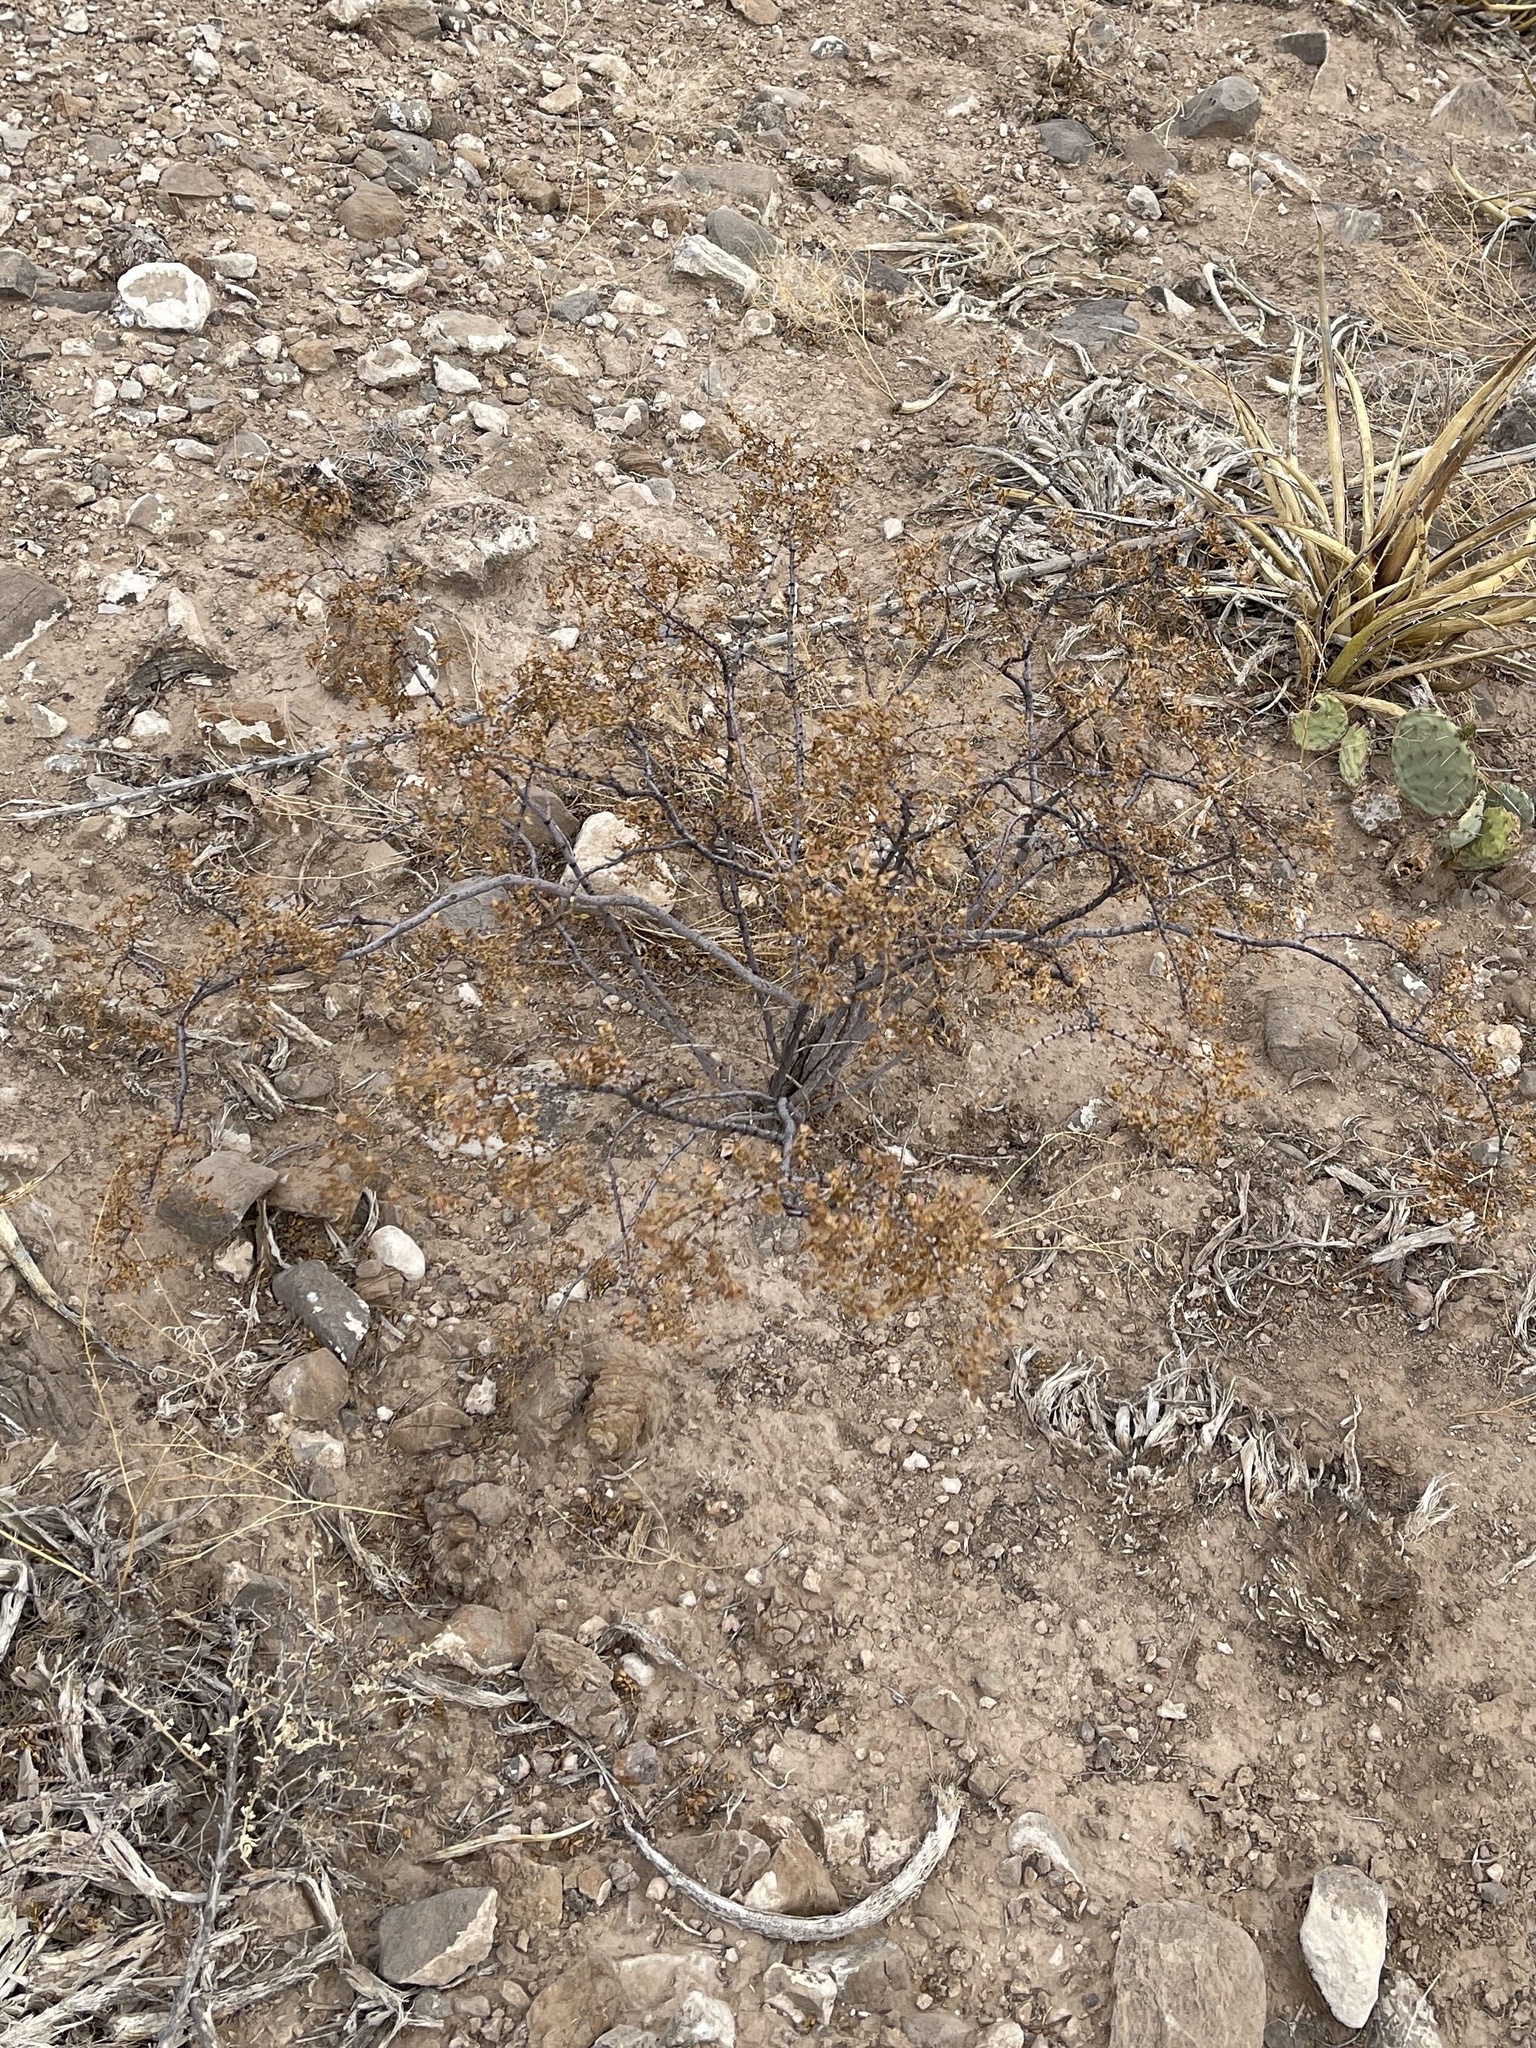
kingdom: Plantae
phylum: Tracheophyta
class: Magnoliopsida
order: Zygophyllales
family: Zygophyllaceae
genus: Larrea
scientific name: Larrea tridentata
